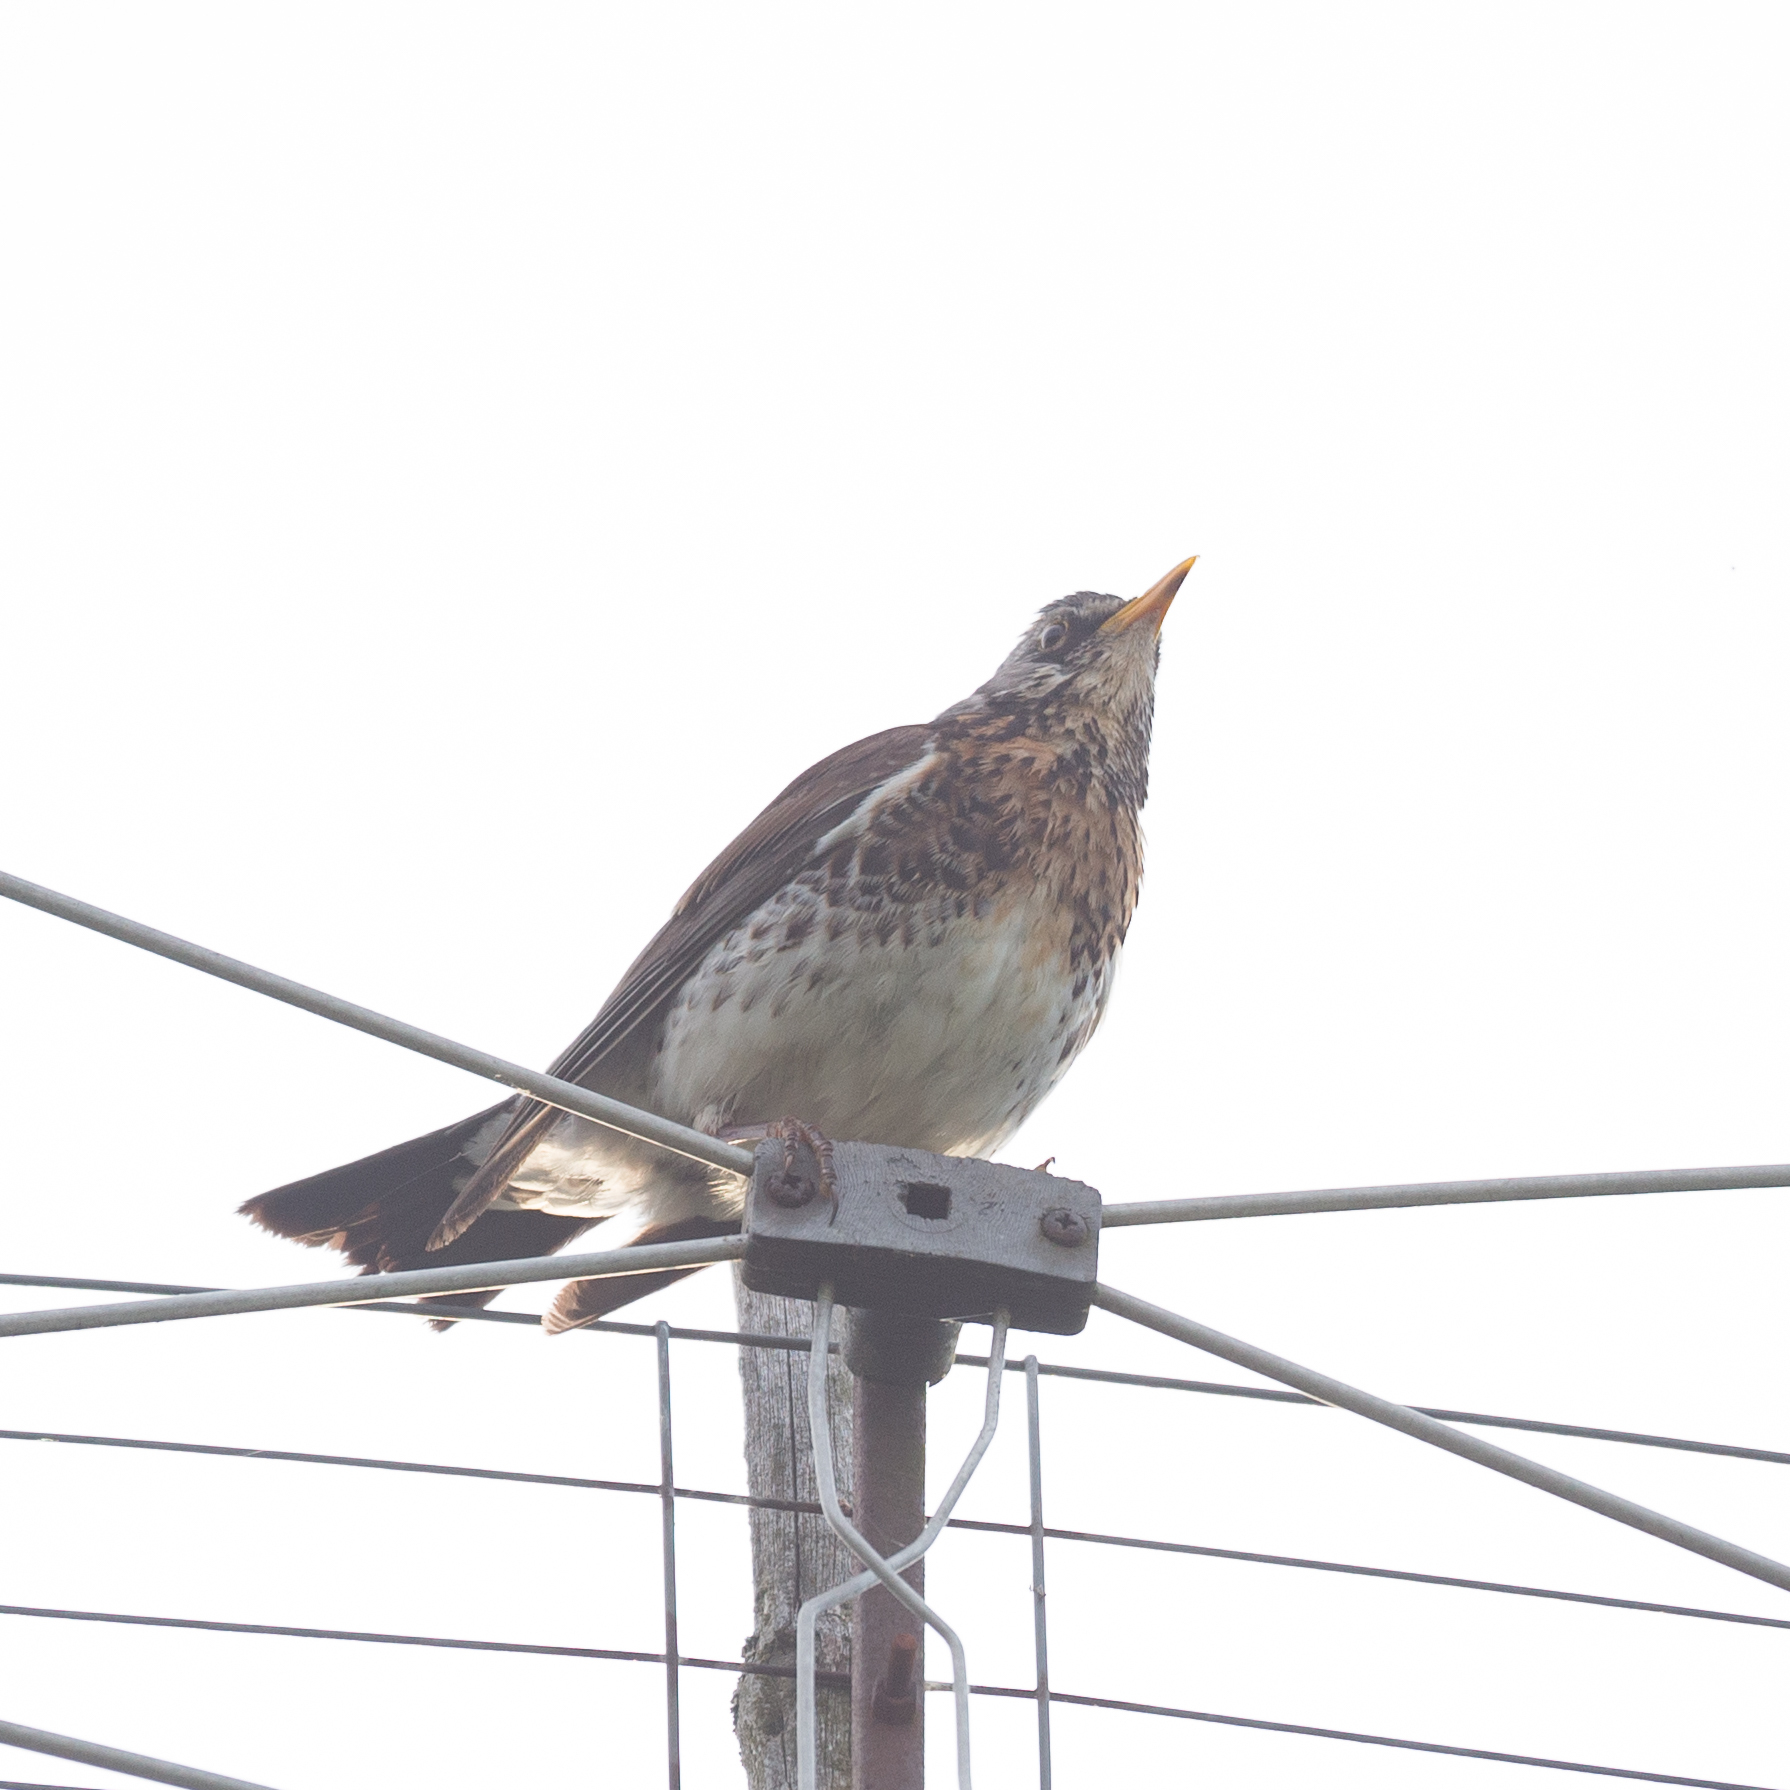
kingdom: Animalia
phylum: Chordata
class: Aves
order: Passeriformes
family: Turdidae
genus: Turdus
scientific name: Turdus pilaris
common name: Fieldfare
